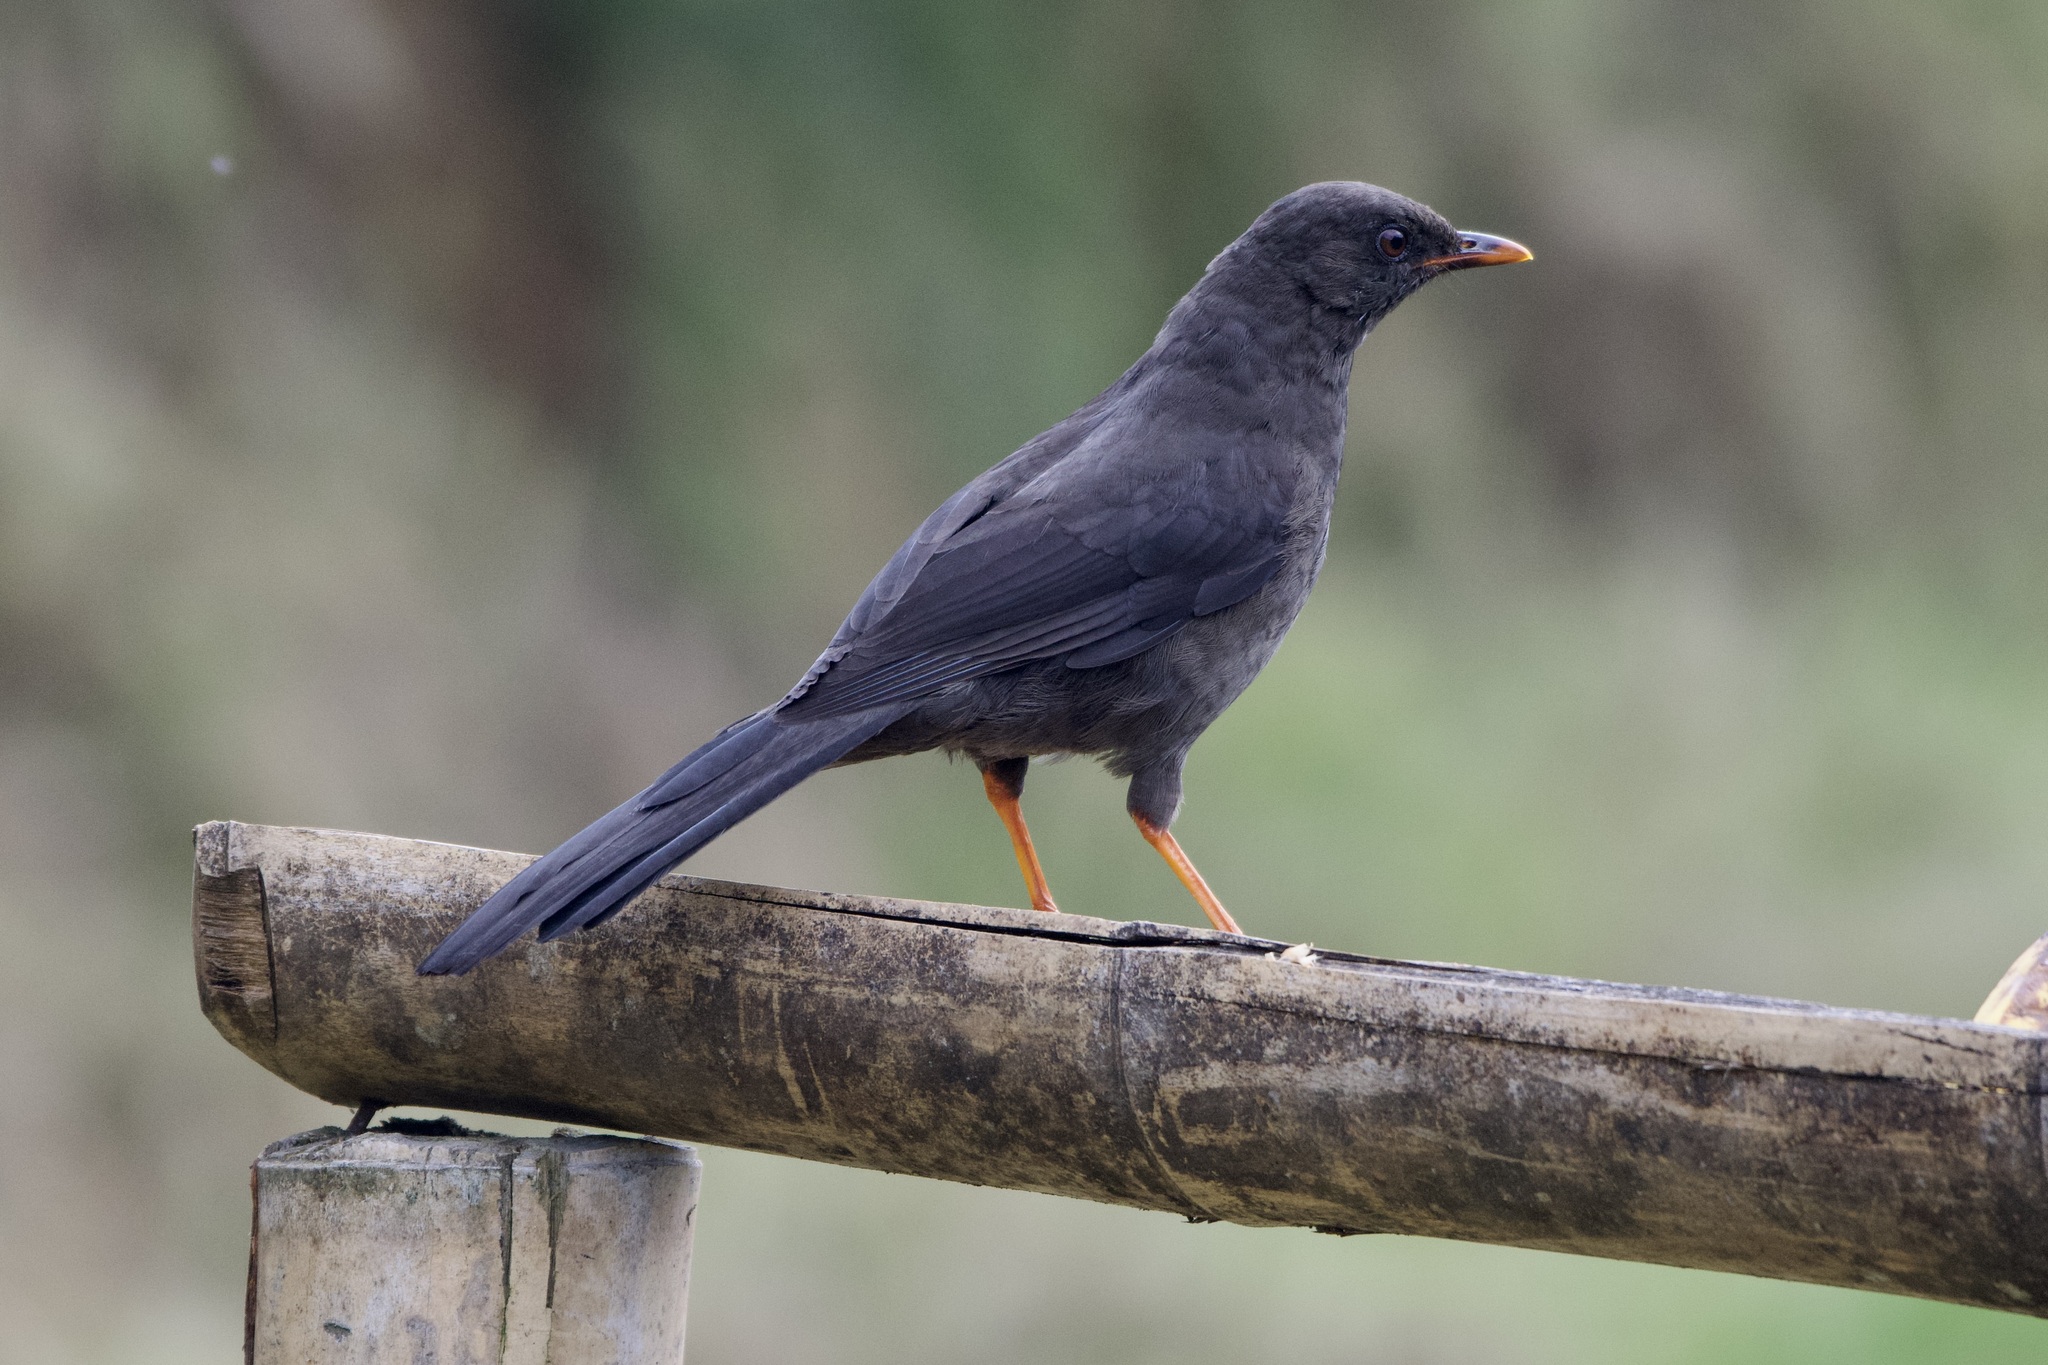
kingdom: Animalia
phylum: Chordata
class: Aves
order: Passeriformes
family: Turdidae
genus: Turdus
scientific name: Turdus fuscater
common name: Great thrush
